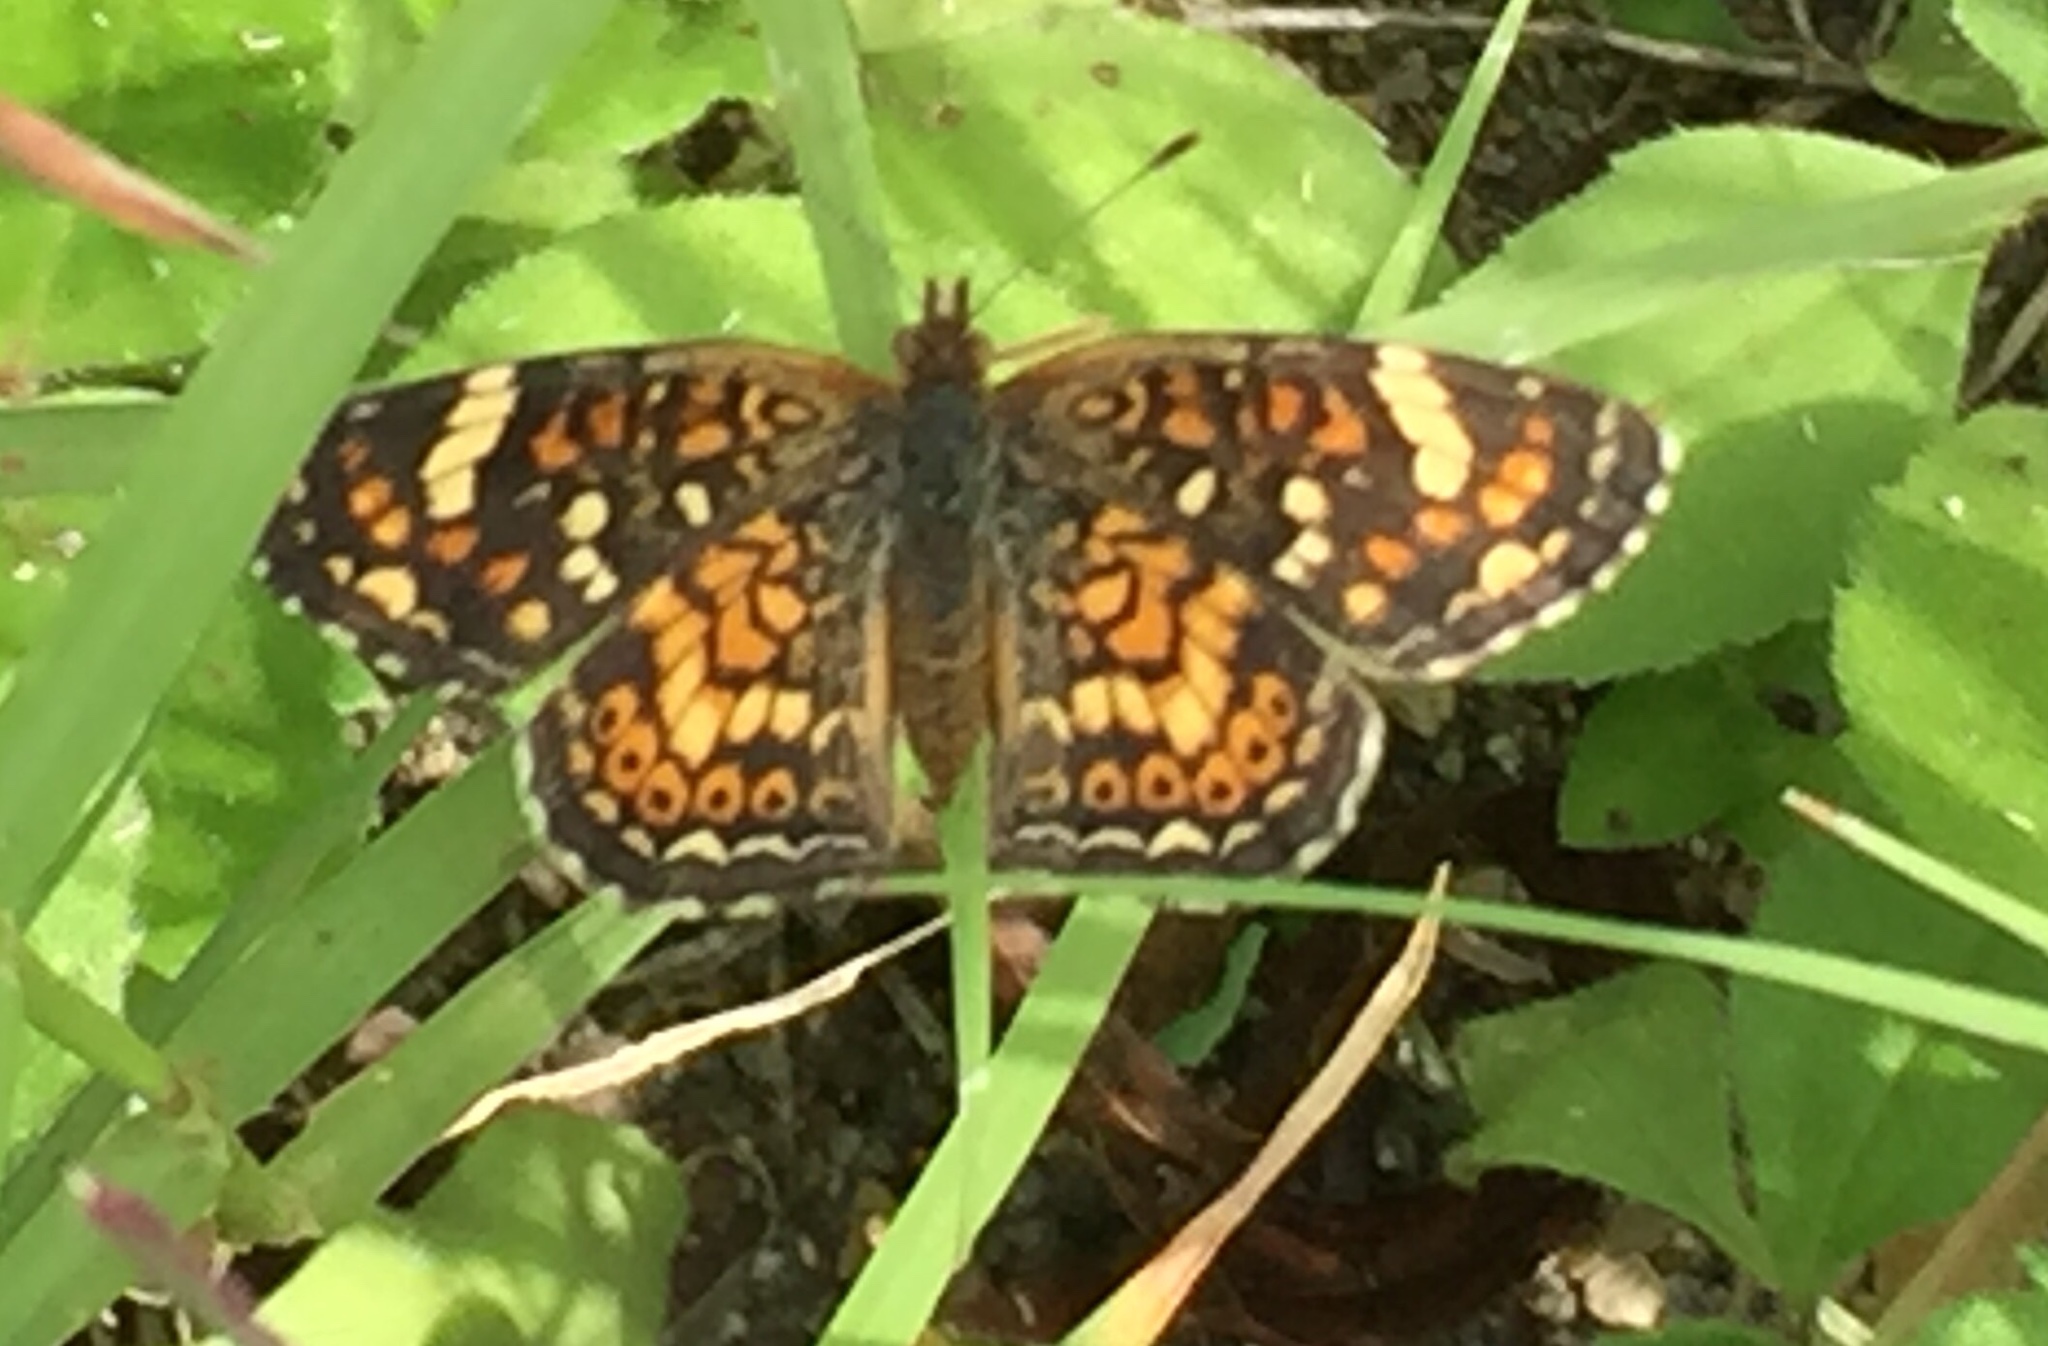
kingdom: Animalia
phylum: Arthropoda
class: Insecta
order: Lepidoptera
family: Nymphalidae
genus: Phyciodes
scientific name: Phyciodes picta
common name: Painted crescent
